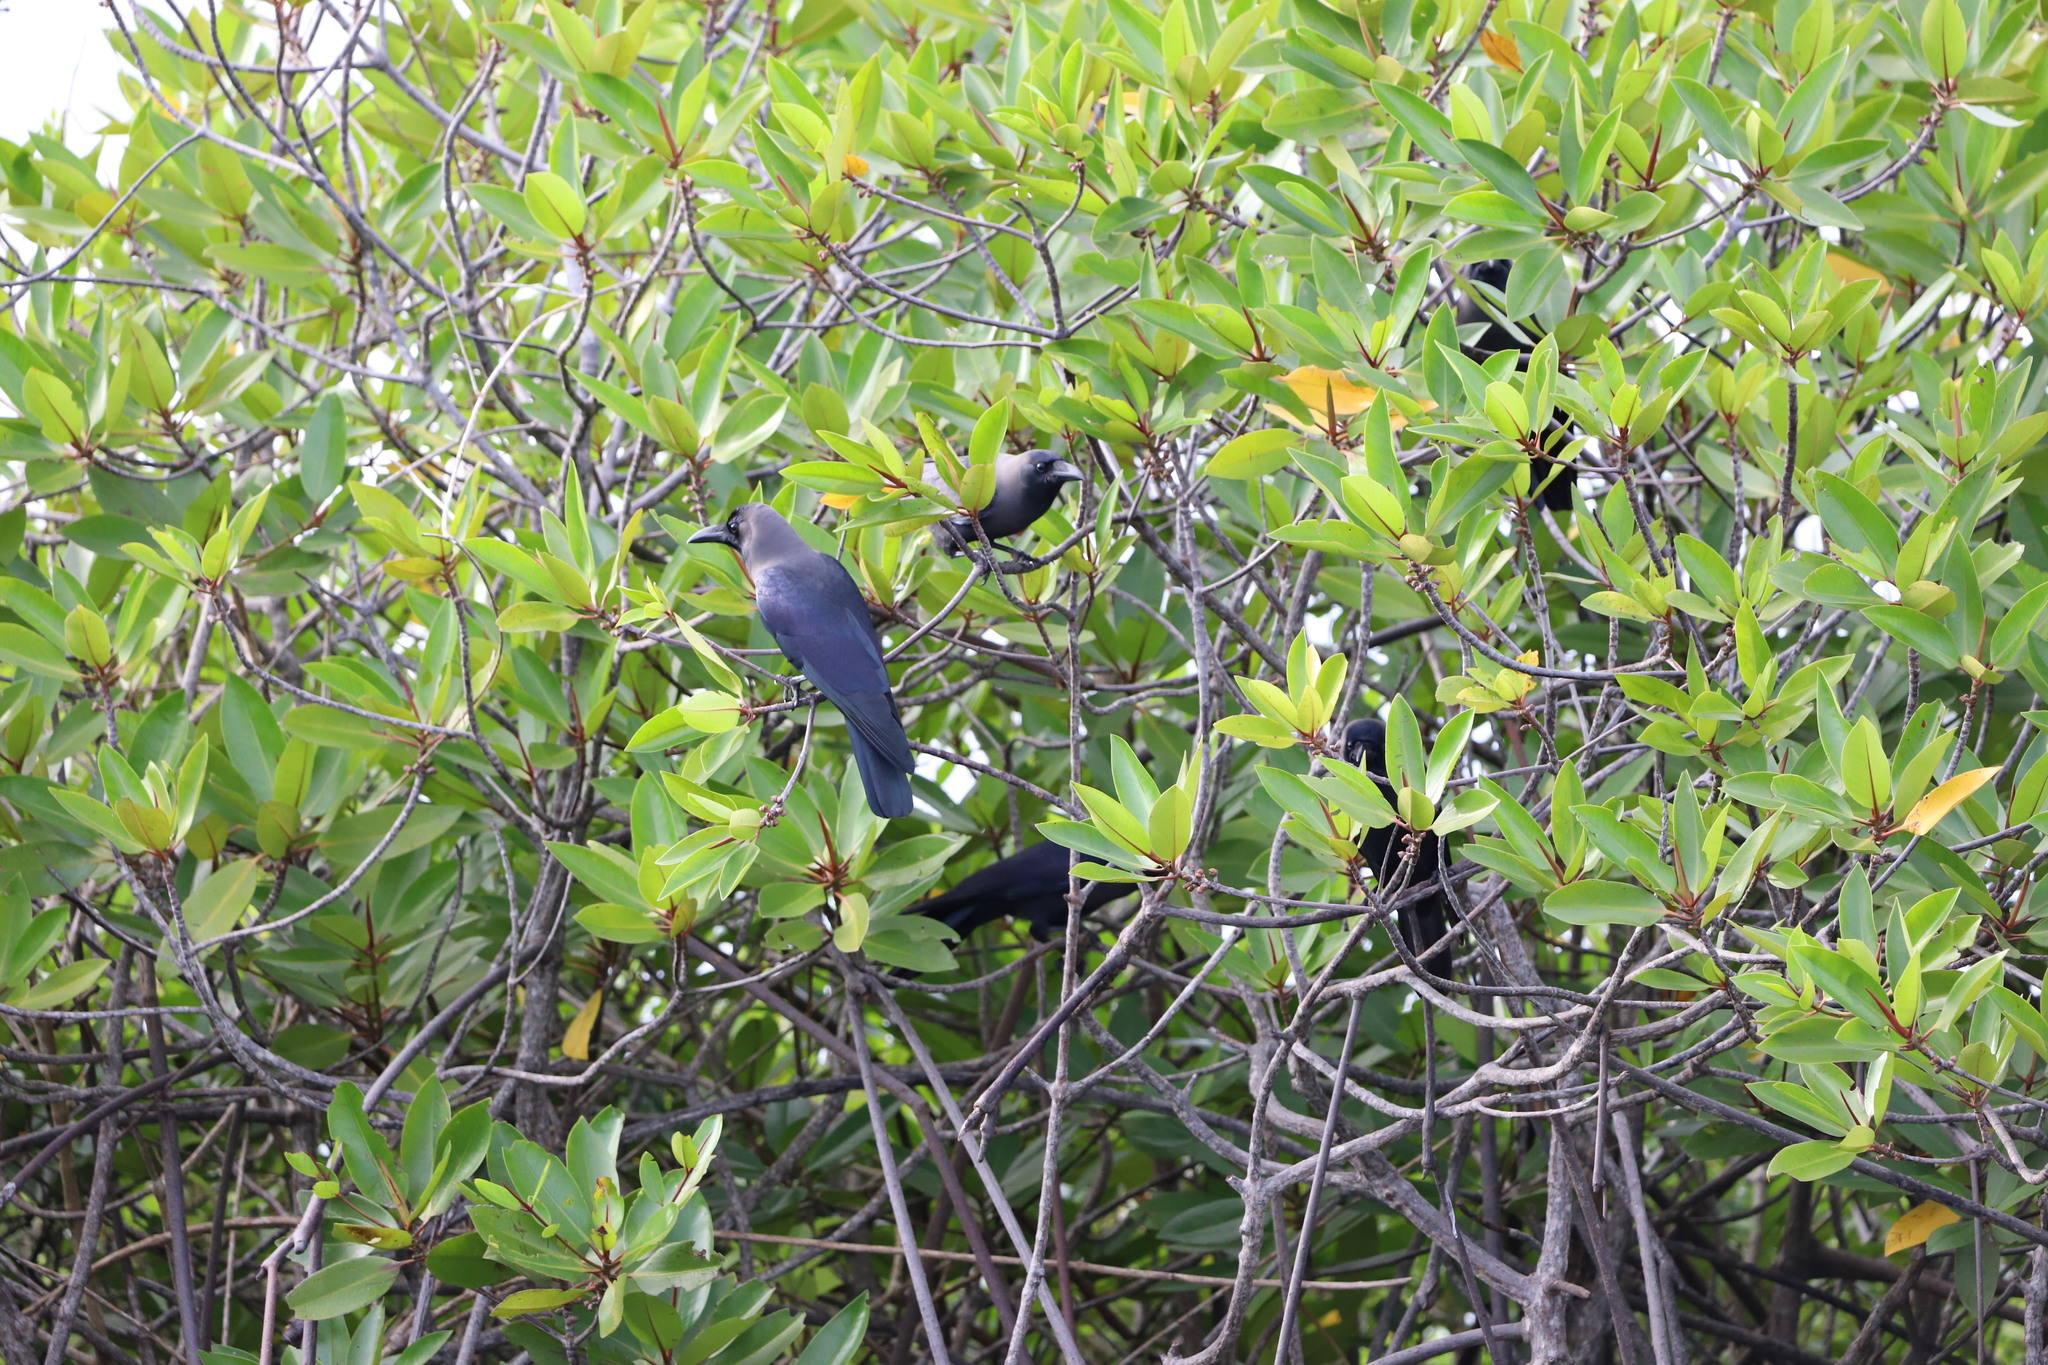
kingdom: Animalia
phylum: Chordata
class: Aves
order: Passeriformes
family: Corvidae
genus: Corvus
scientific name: Corvus splendens
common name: House crow
